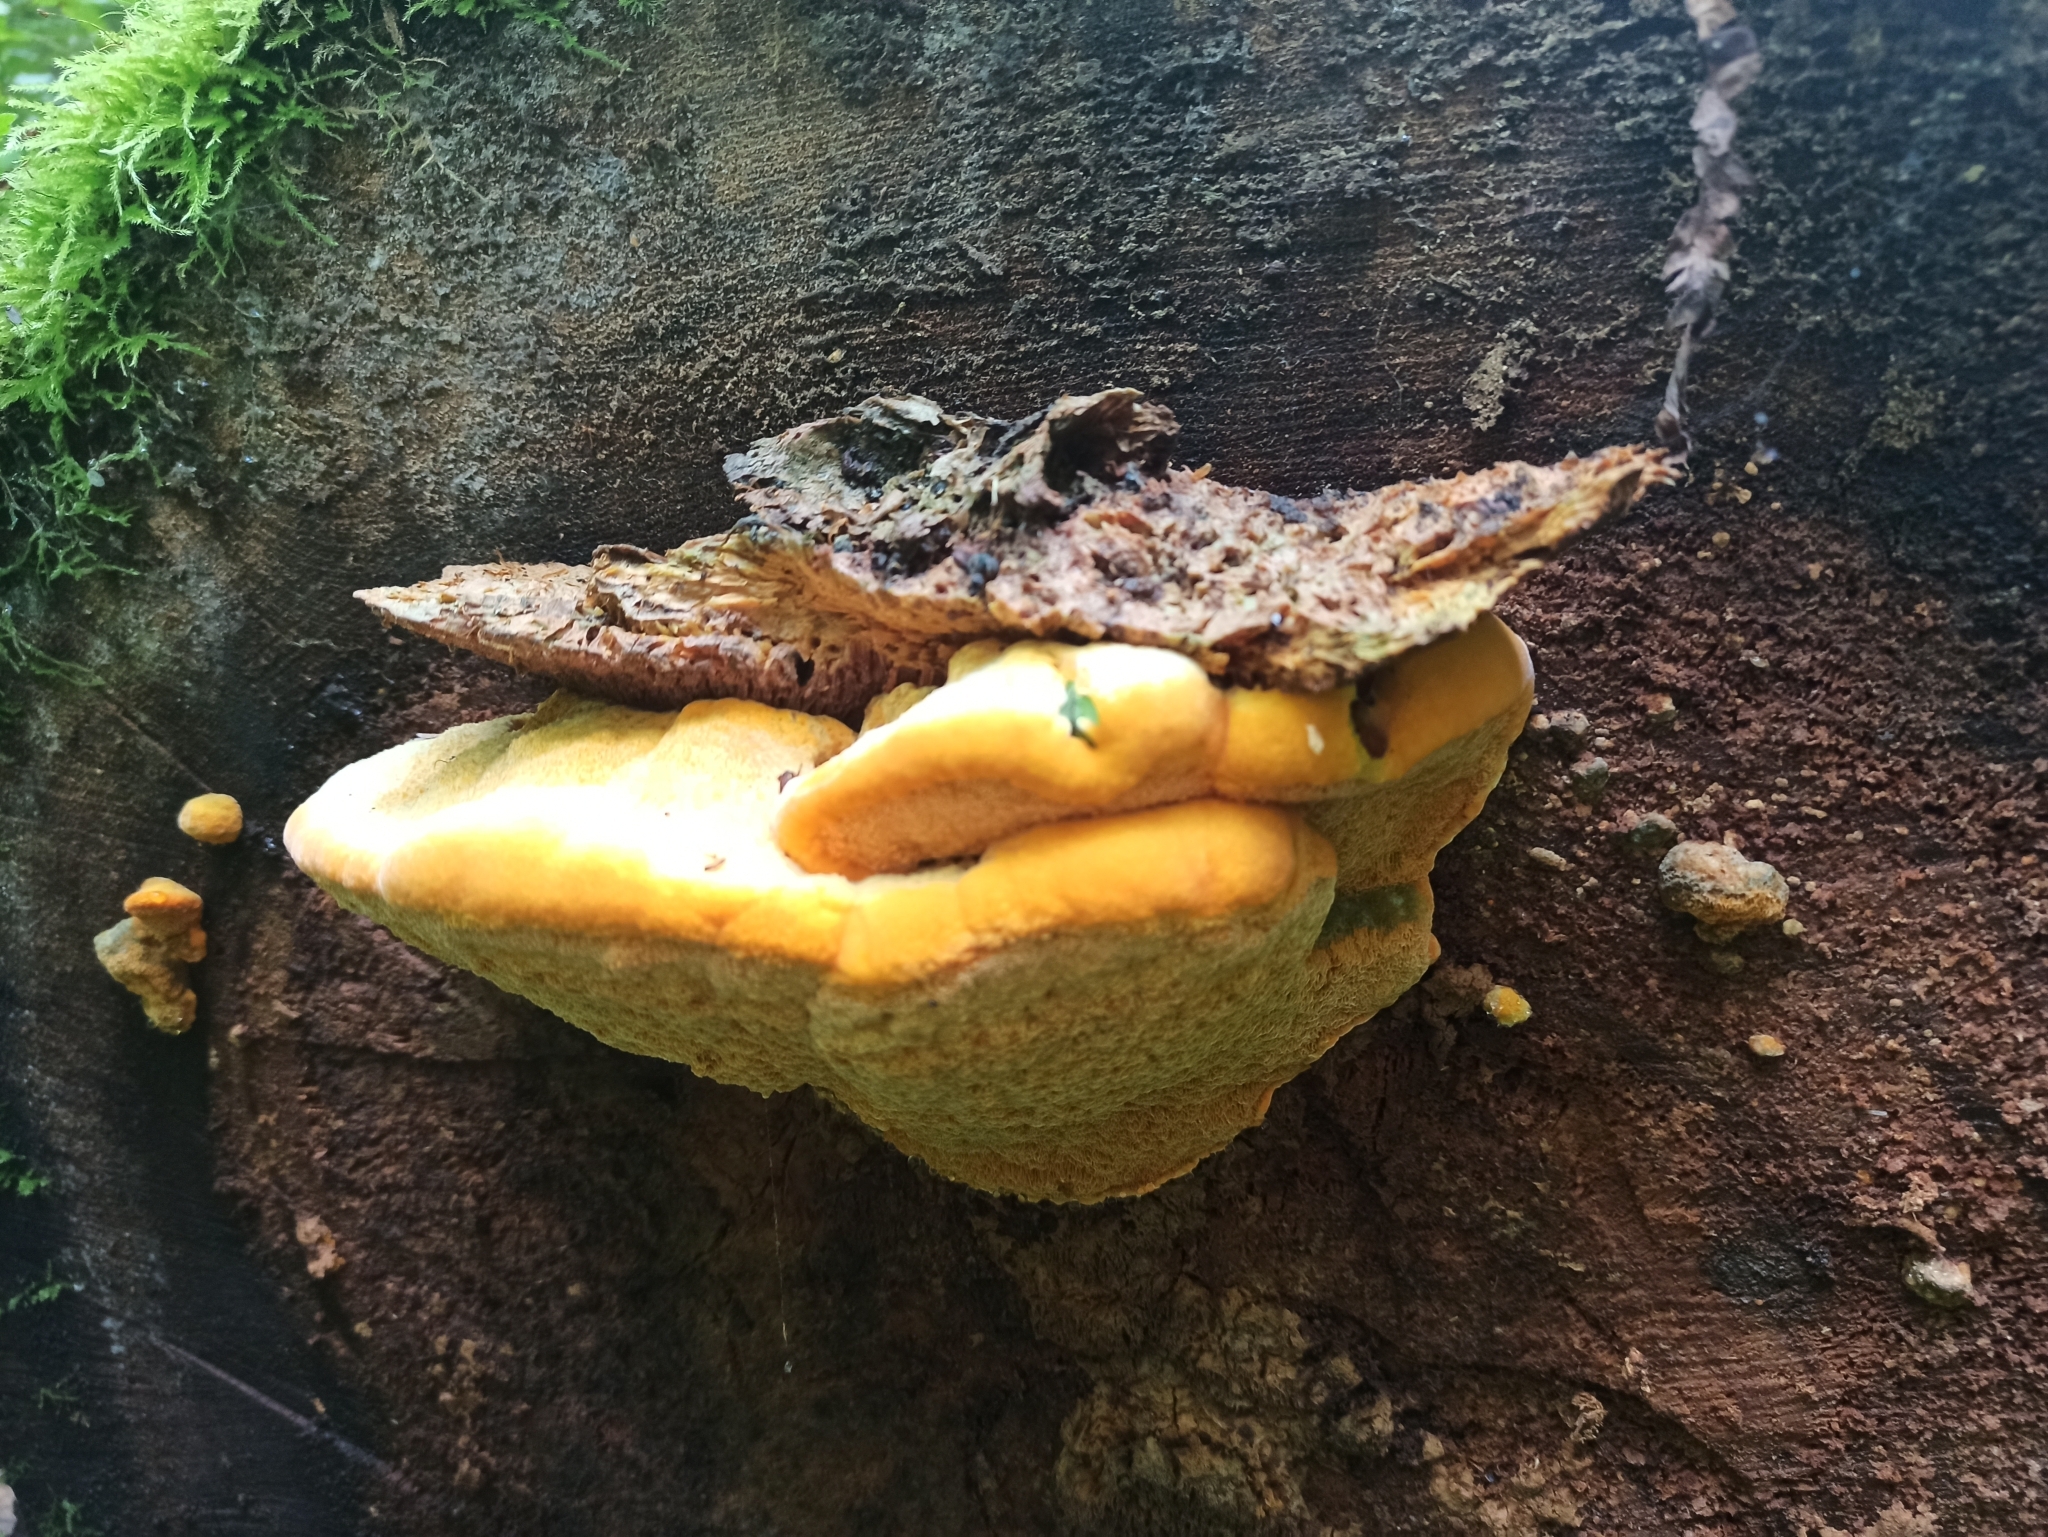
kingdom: Fungi
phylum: Basidiomycota
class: Agaricomycetes
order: Polyporales
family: Phanerochaetaceae
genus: Hapalopilus
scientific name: Hapalopilus croceus
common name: Orange polypore
